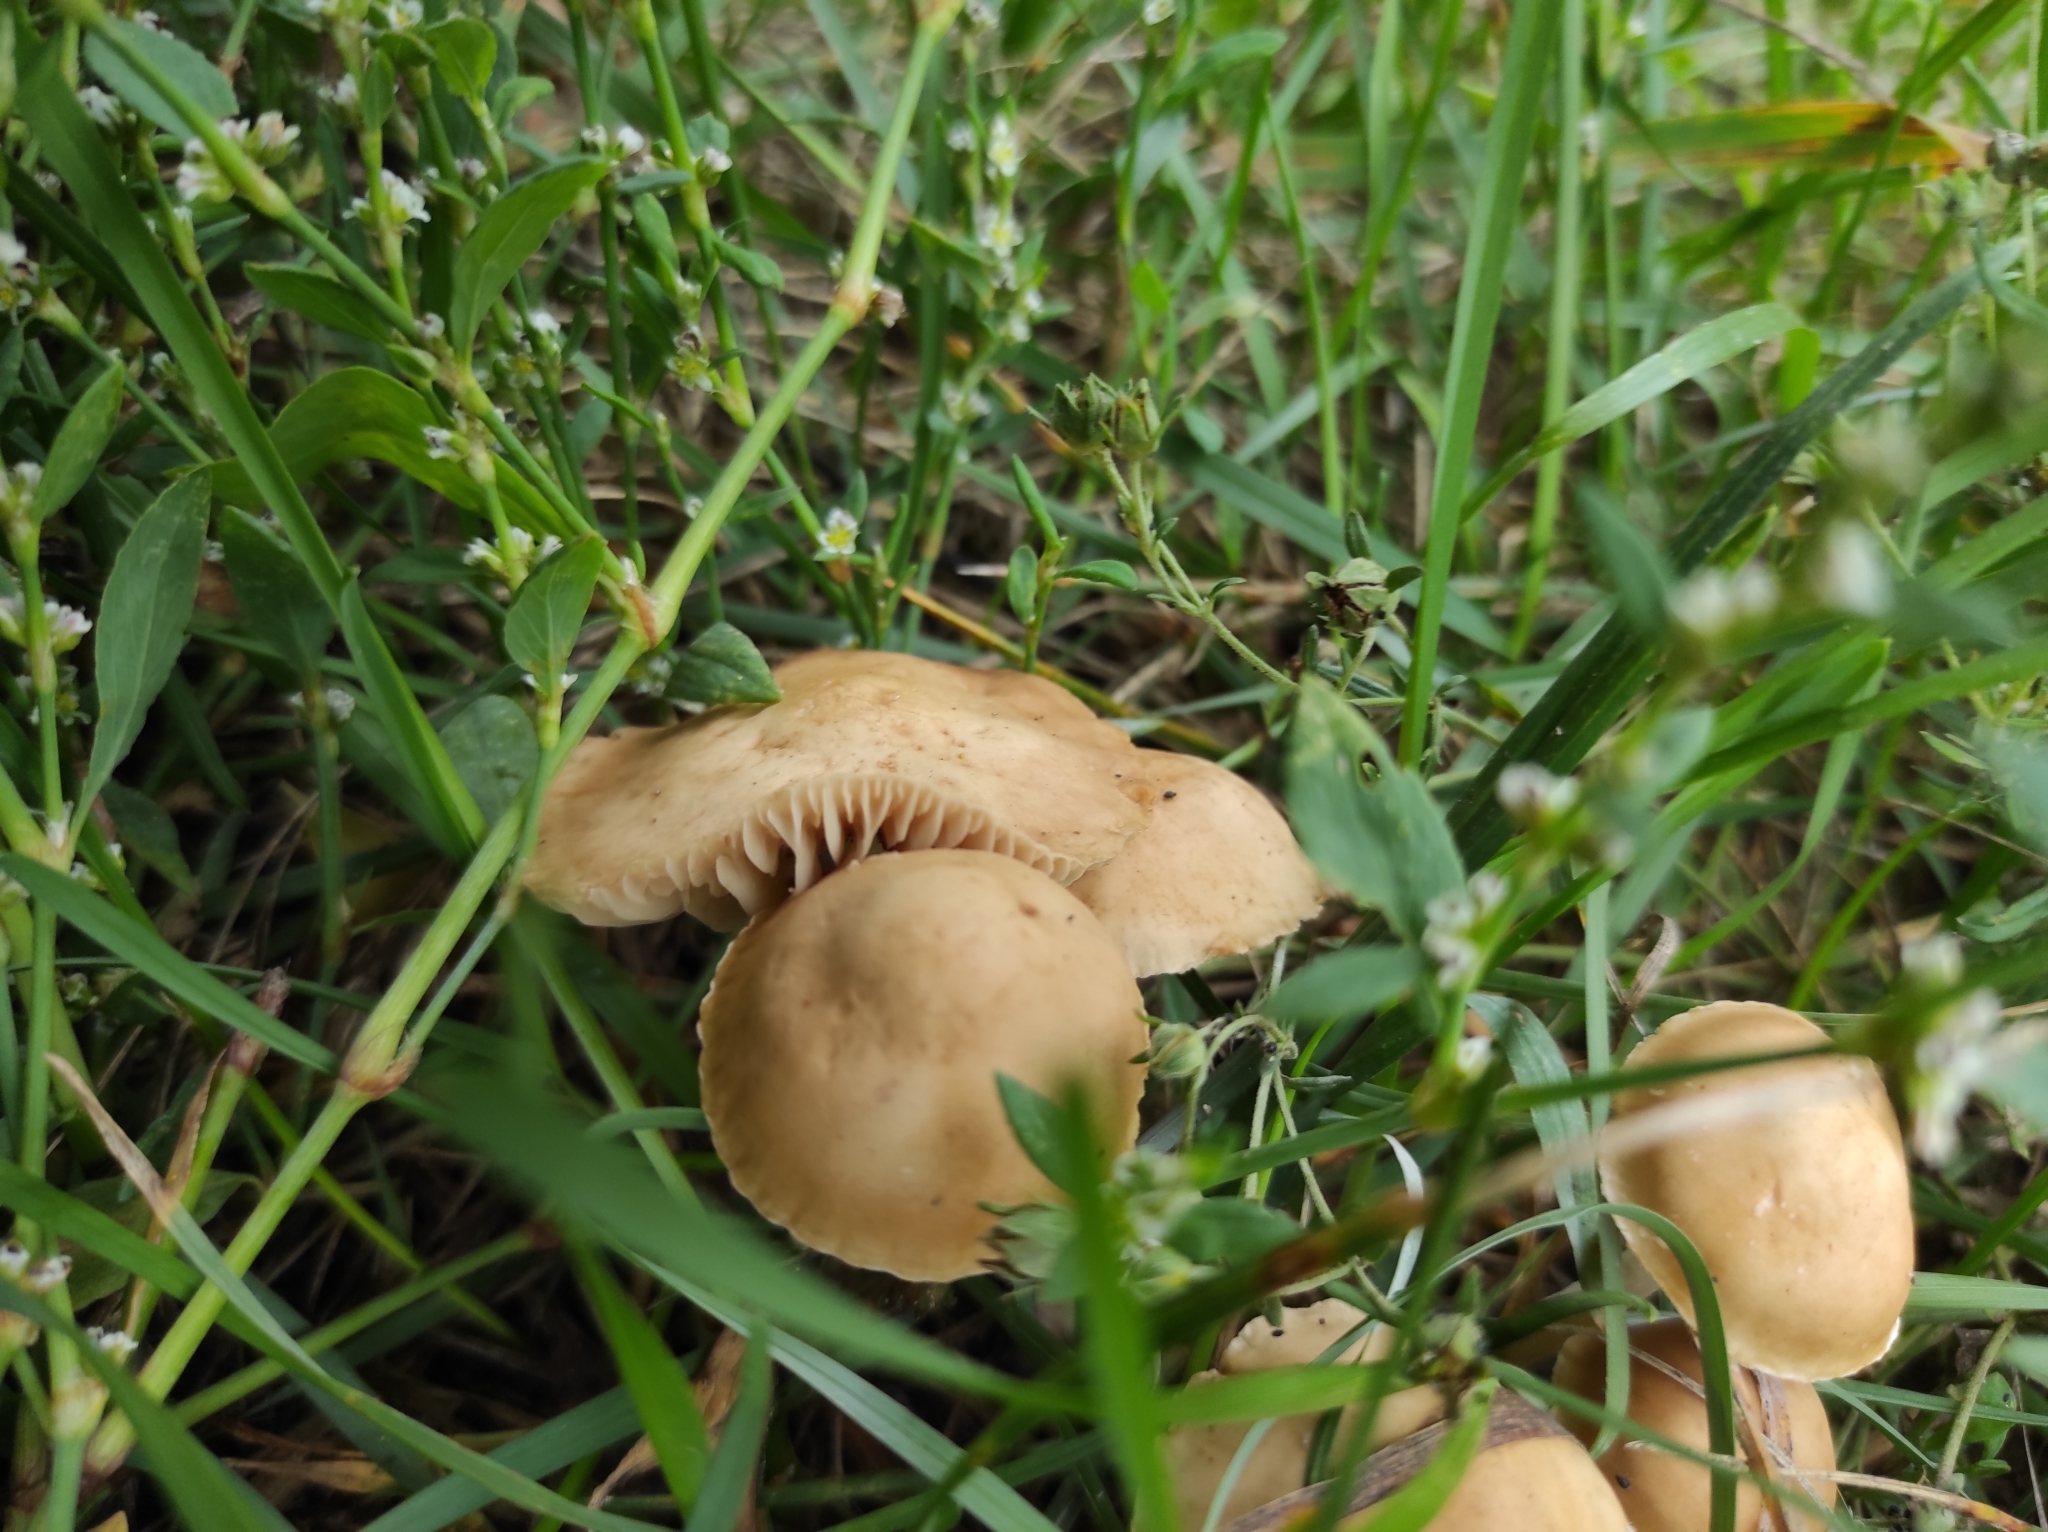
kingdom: Plantae
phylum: Tracheophyta
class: Magnoliopsida
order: Caryophyllales
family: Polygonaceae
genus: Polygonum
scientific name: Polygonum
